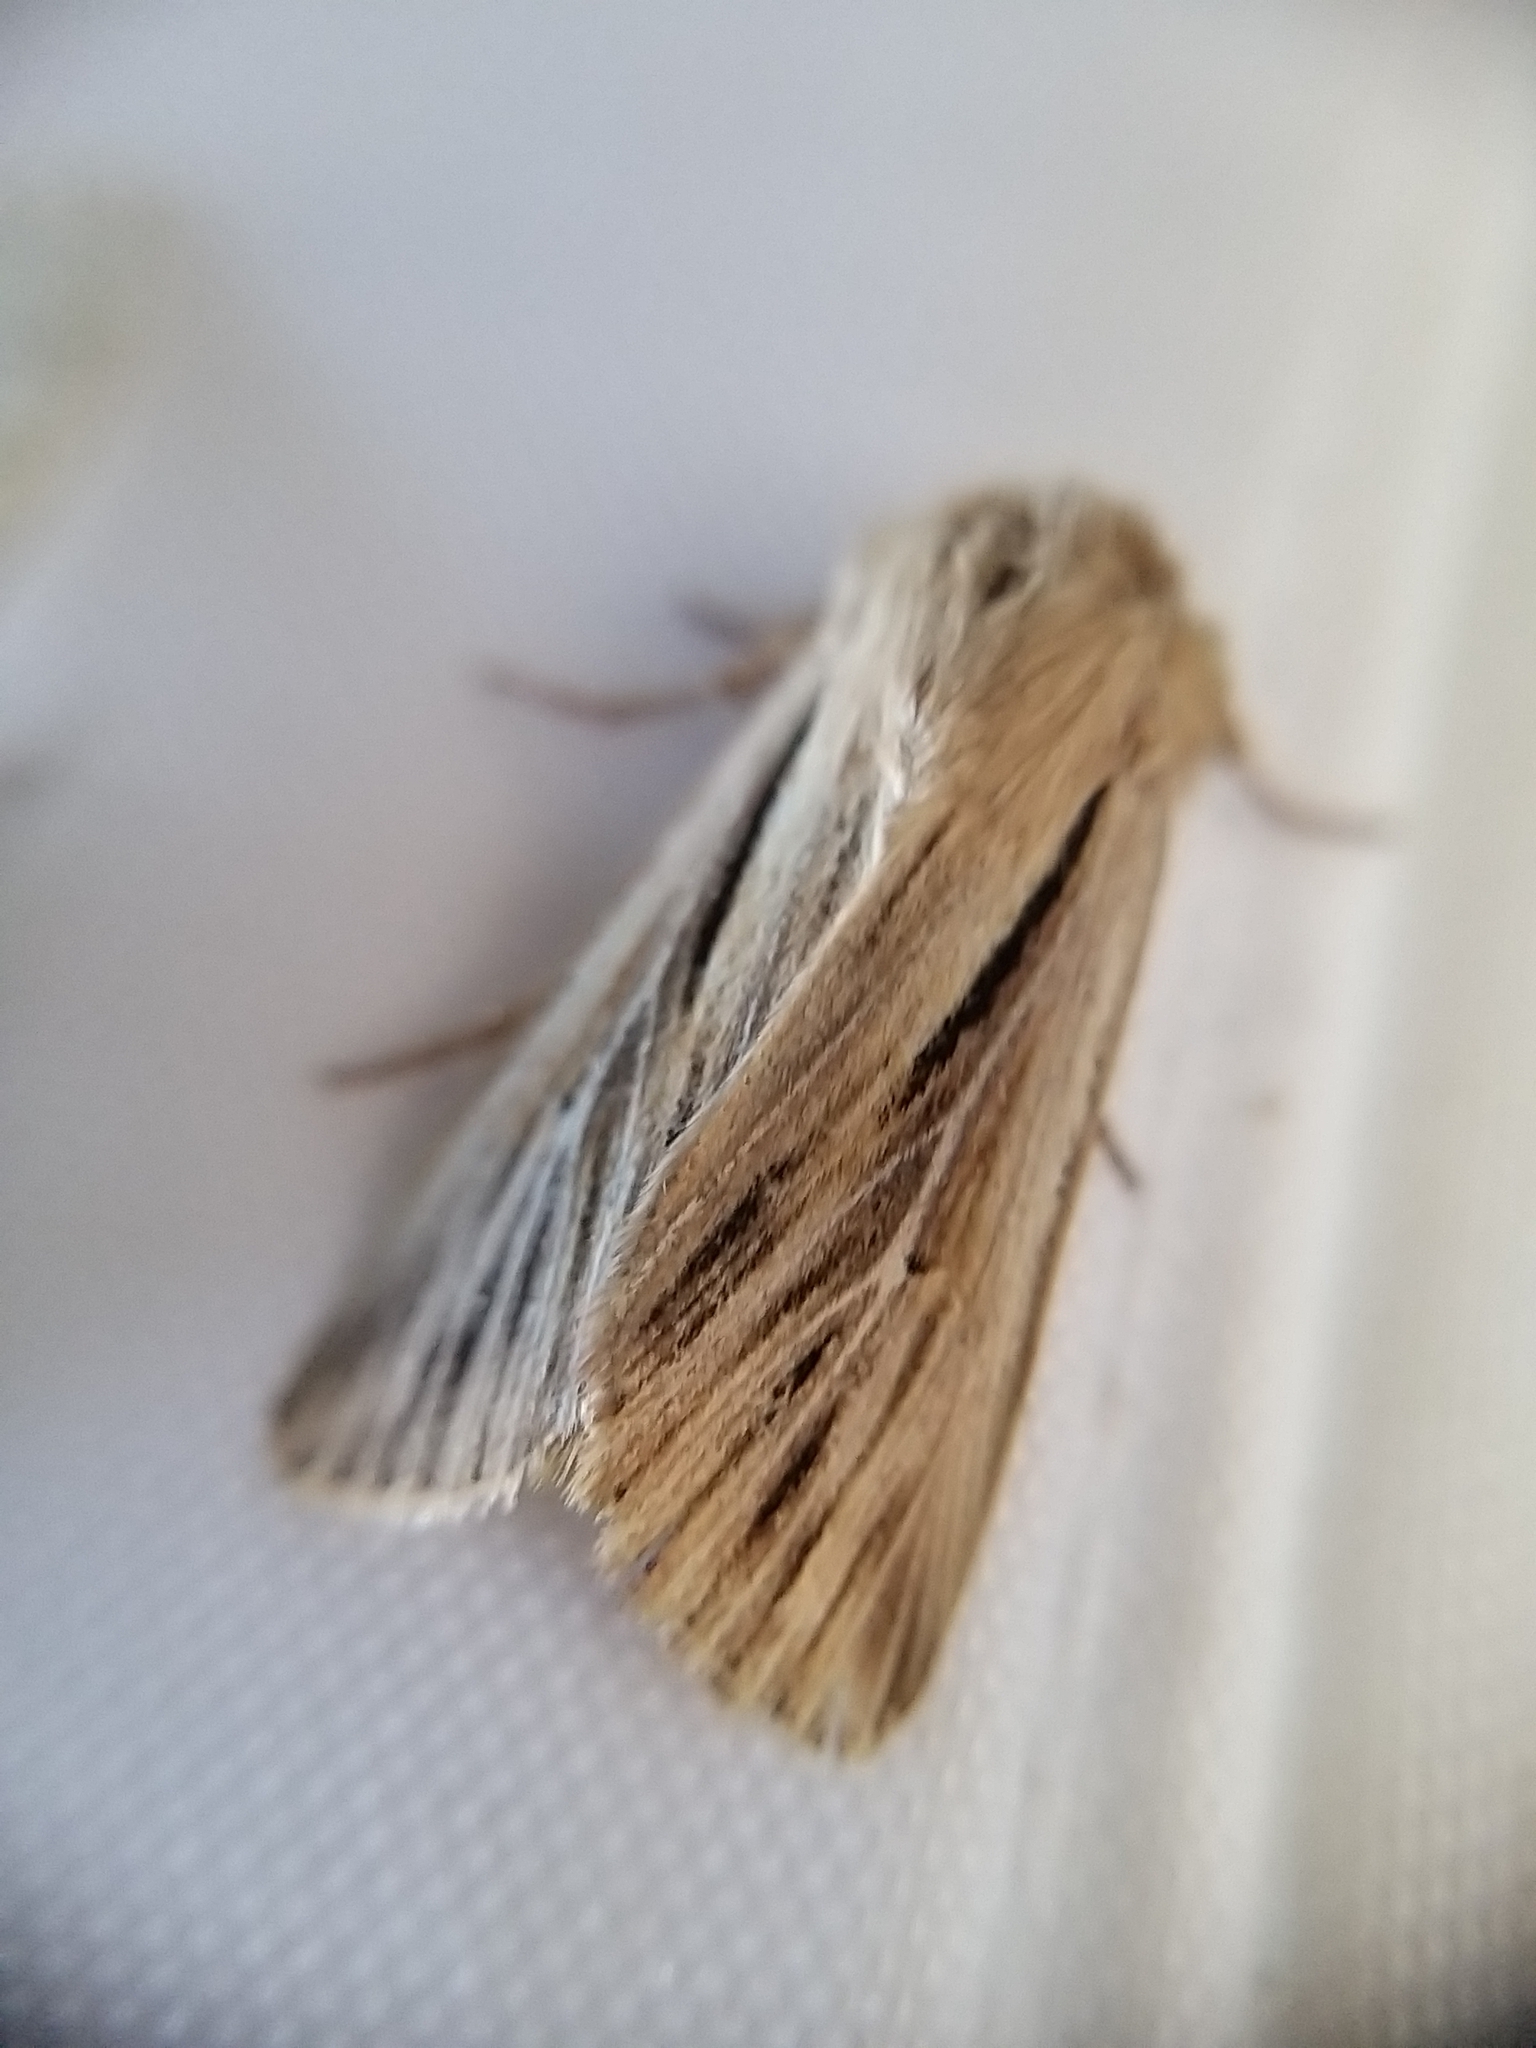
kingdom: Animalia
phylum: Arthropoda
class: Insecta
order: Lepidoptera
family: Noctuidae
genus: Leucania
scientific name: Leucania comma
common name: Shoulder-striped wainscot
